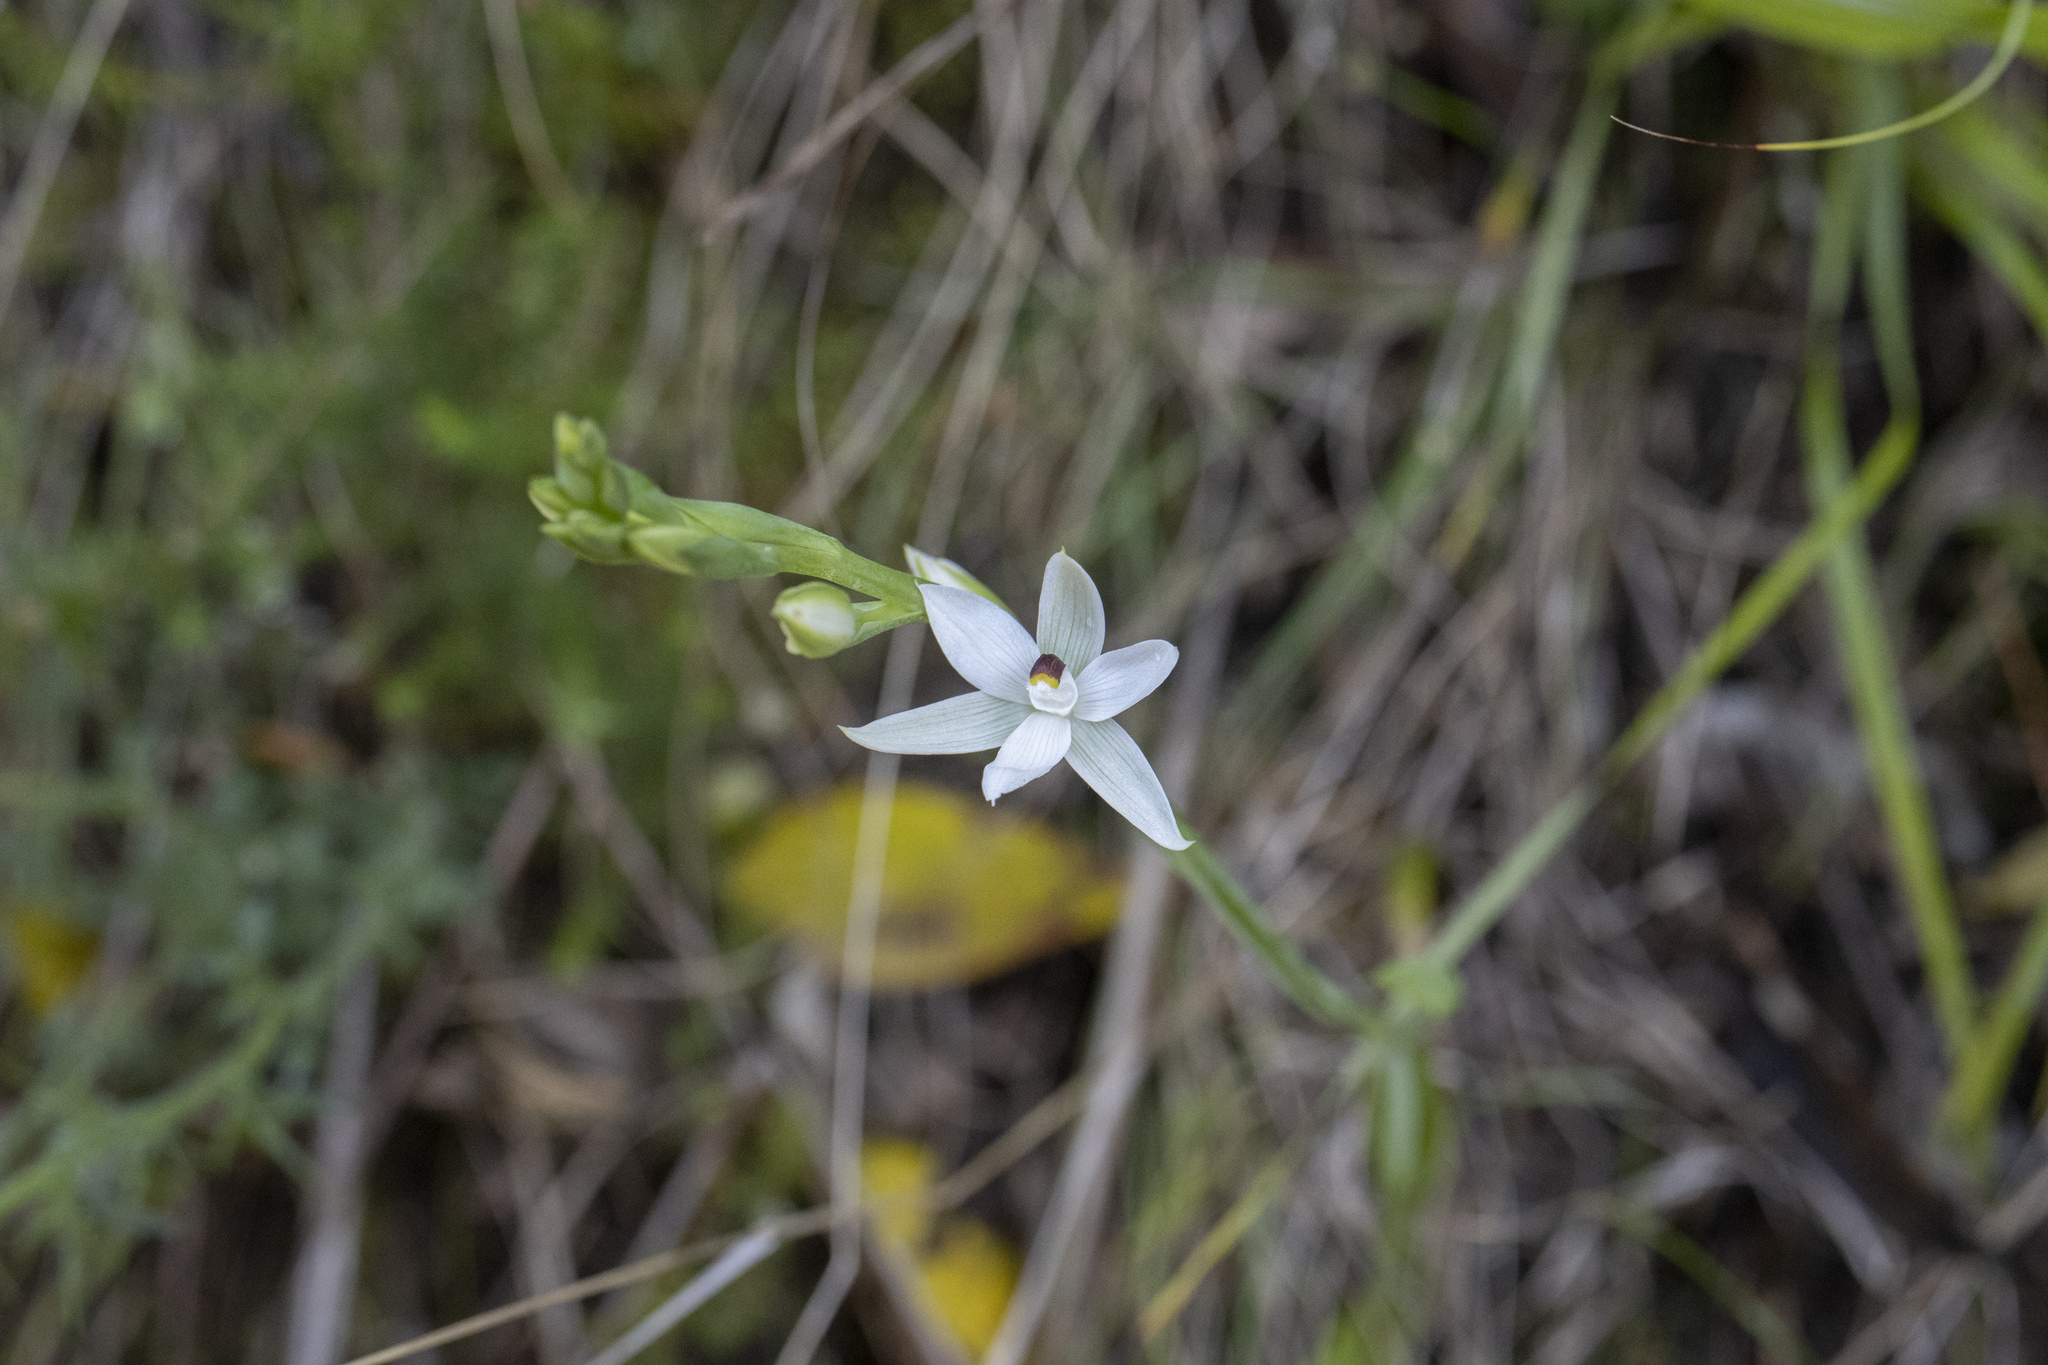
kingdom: Plantae
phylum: Tracheophyta
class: Liliopsida
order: Asparagales
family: Orchidaceae
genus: Thelymitra
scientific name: Thelymitra longifolia
